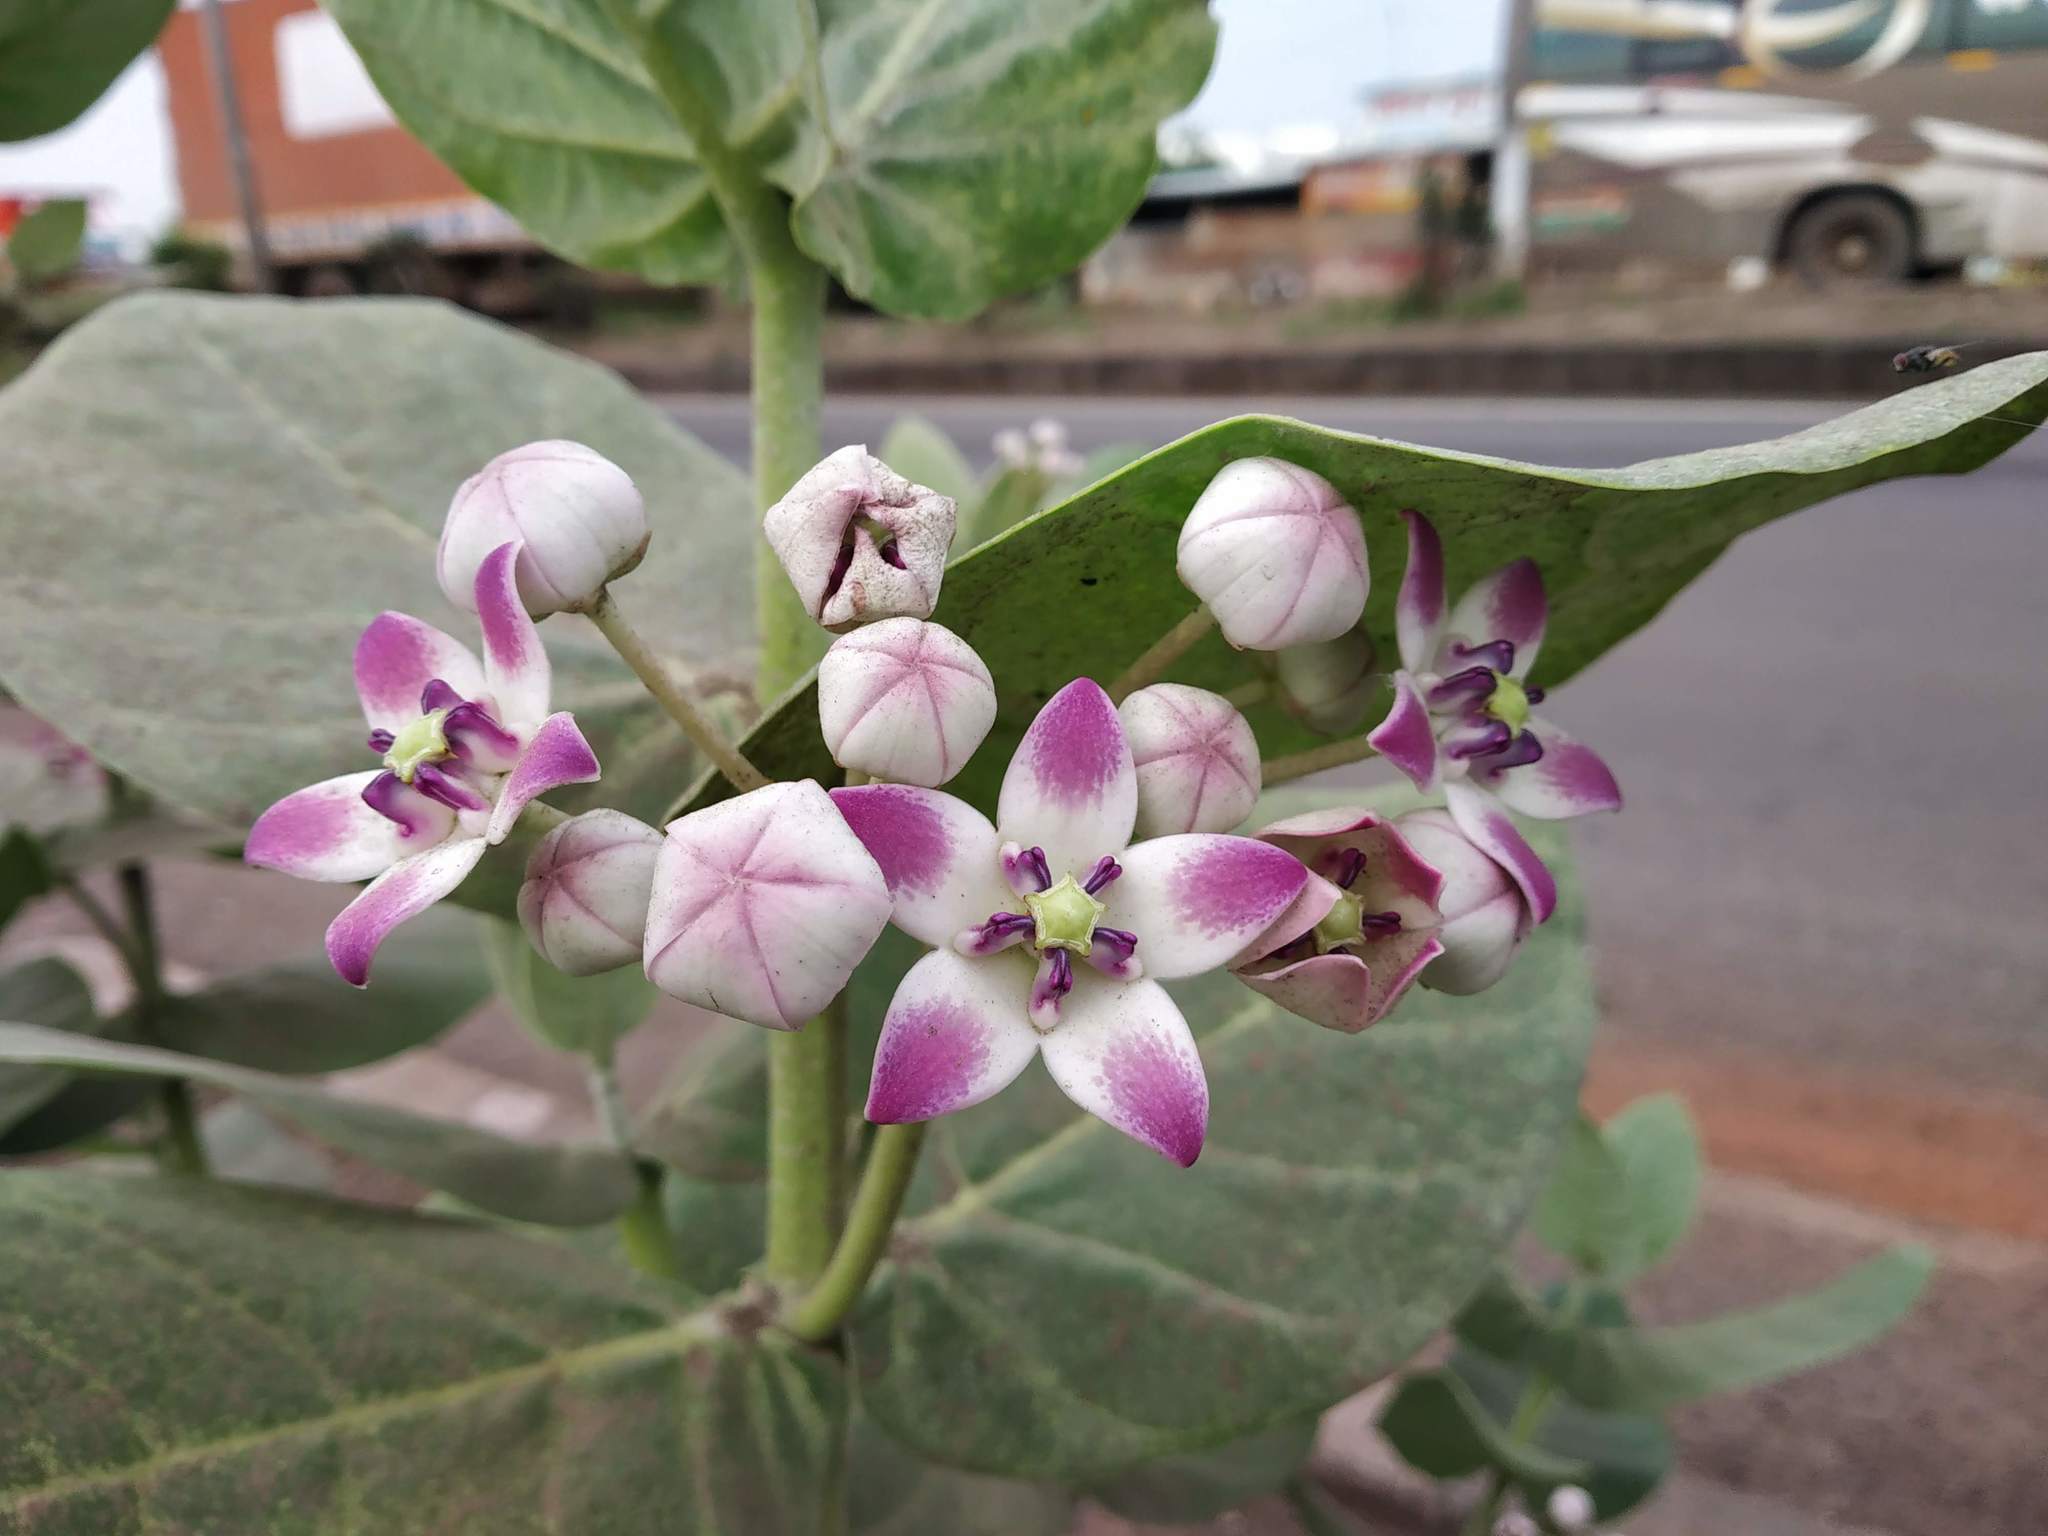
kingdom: Plantae
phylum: Tracheophyta
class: Magnoliopsida
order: Gentianales
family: Apocynaceae
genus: Calotropis
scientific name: Calotropis procera
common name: Roostertree
